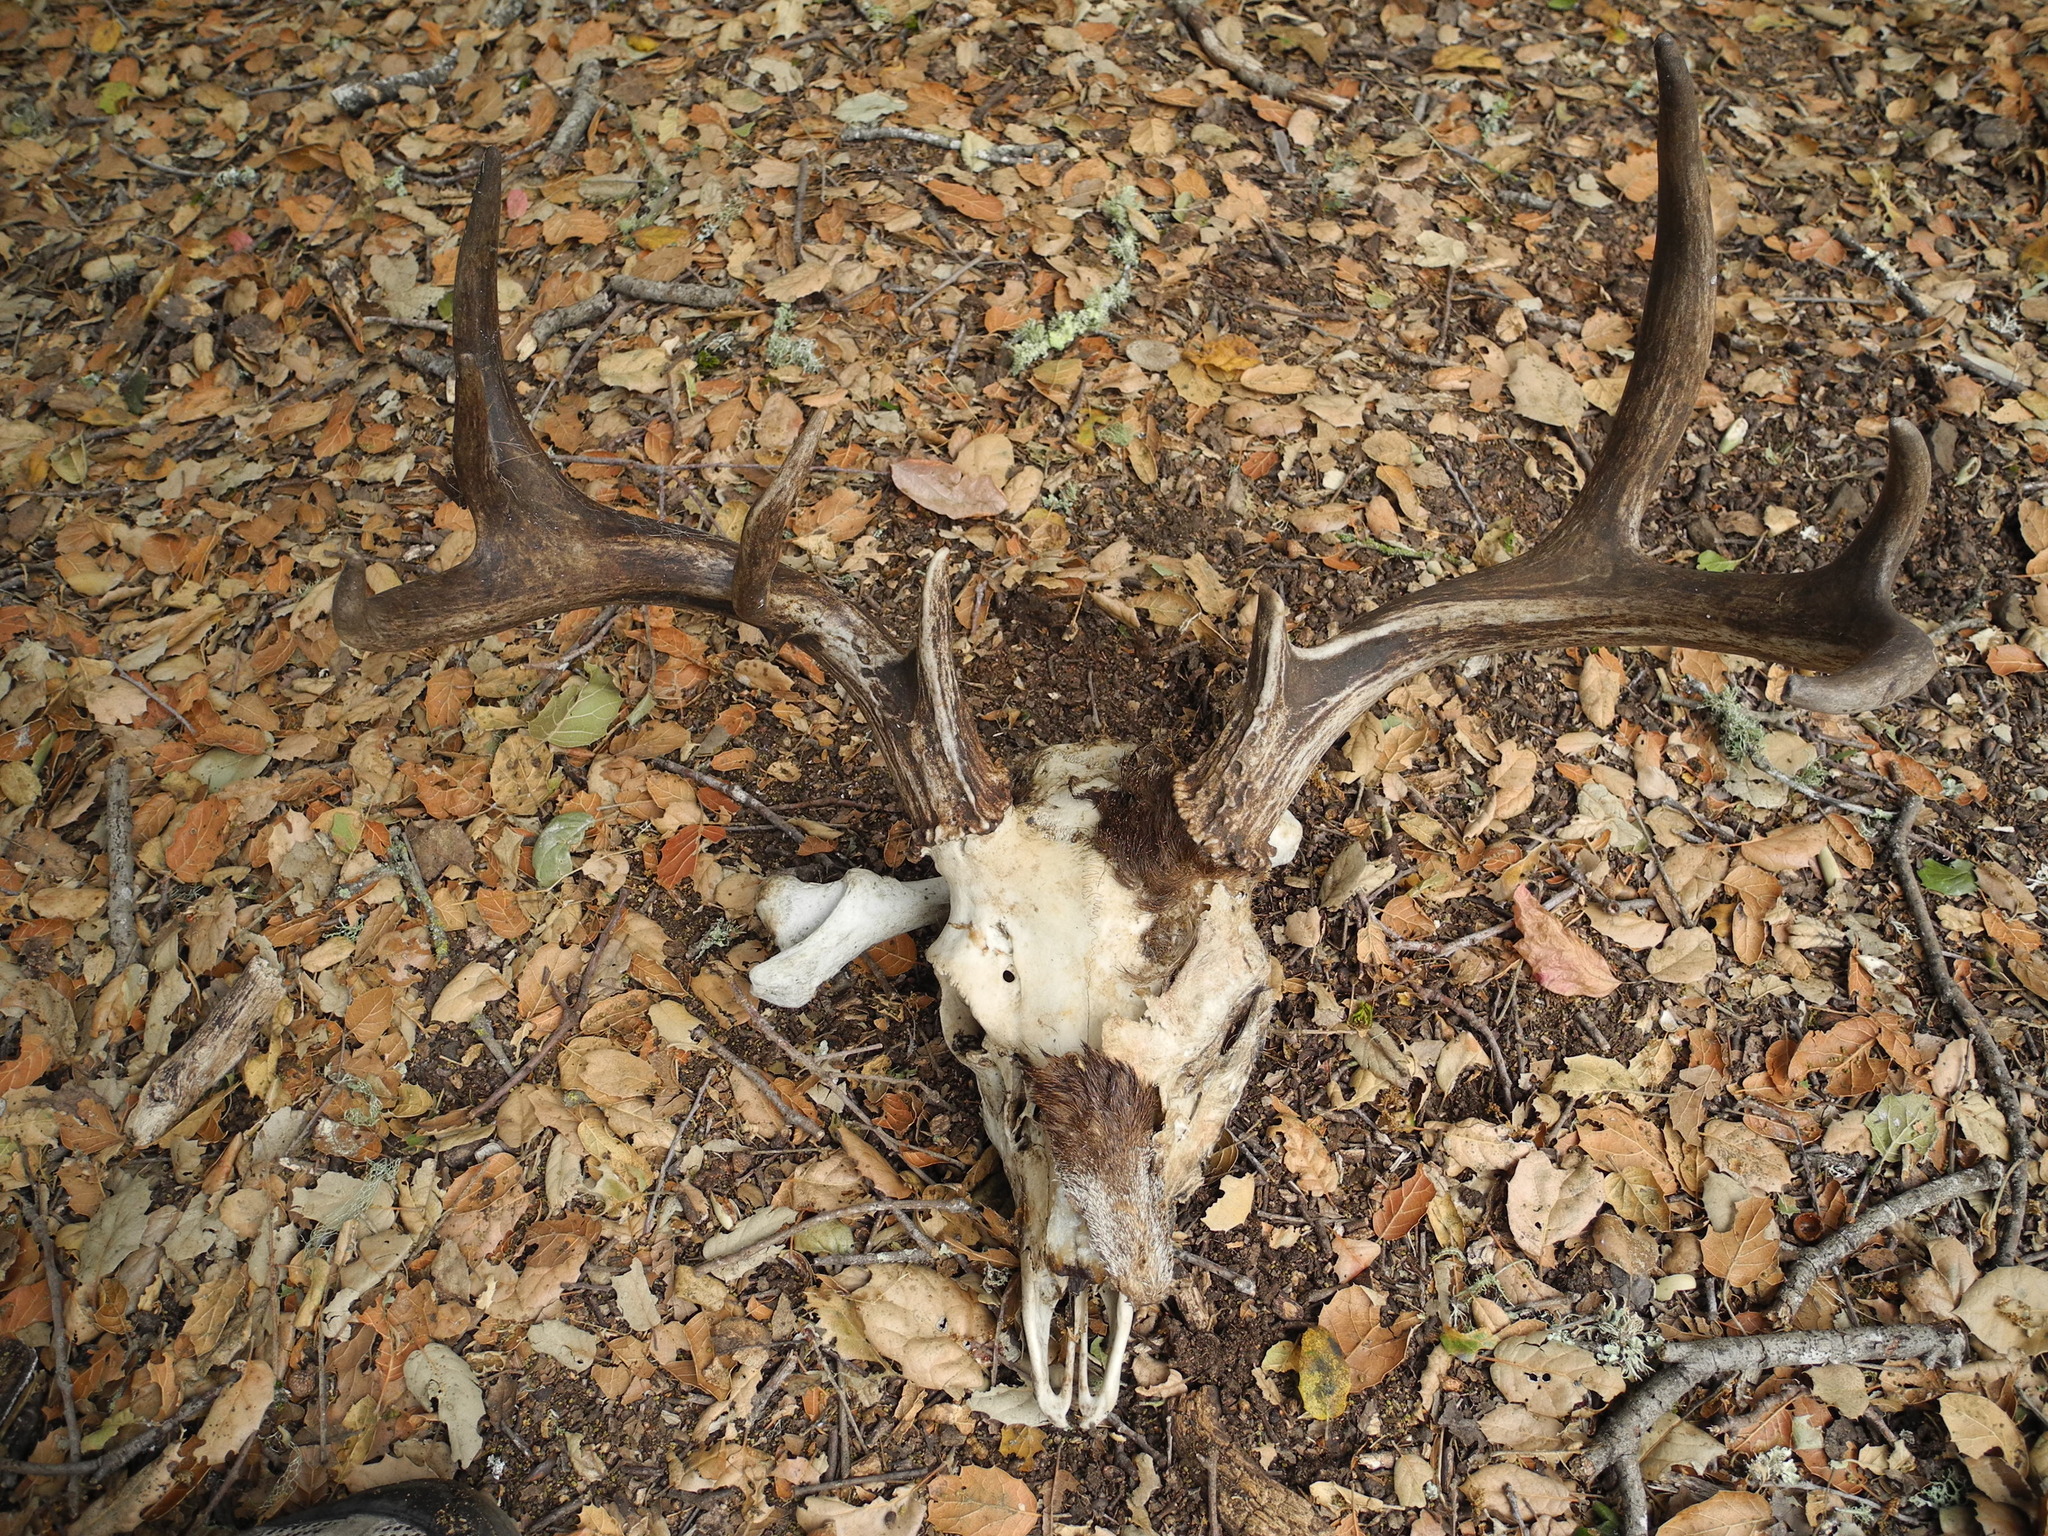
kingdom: Animalia
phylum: Chordata
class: Mammalia
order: Artiodactyla
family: Cervidae
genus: Odocoileus
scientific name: Odocoileus hemionus
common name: Mule deer
